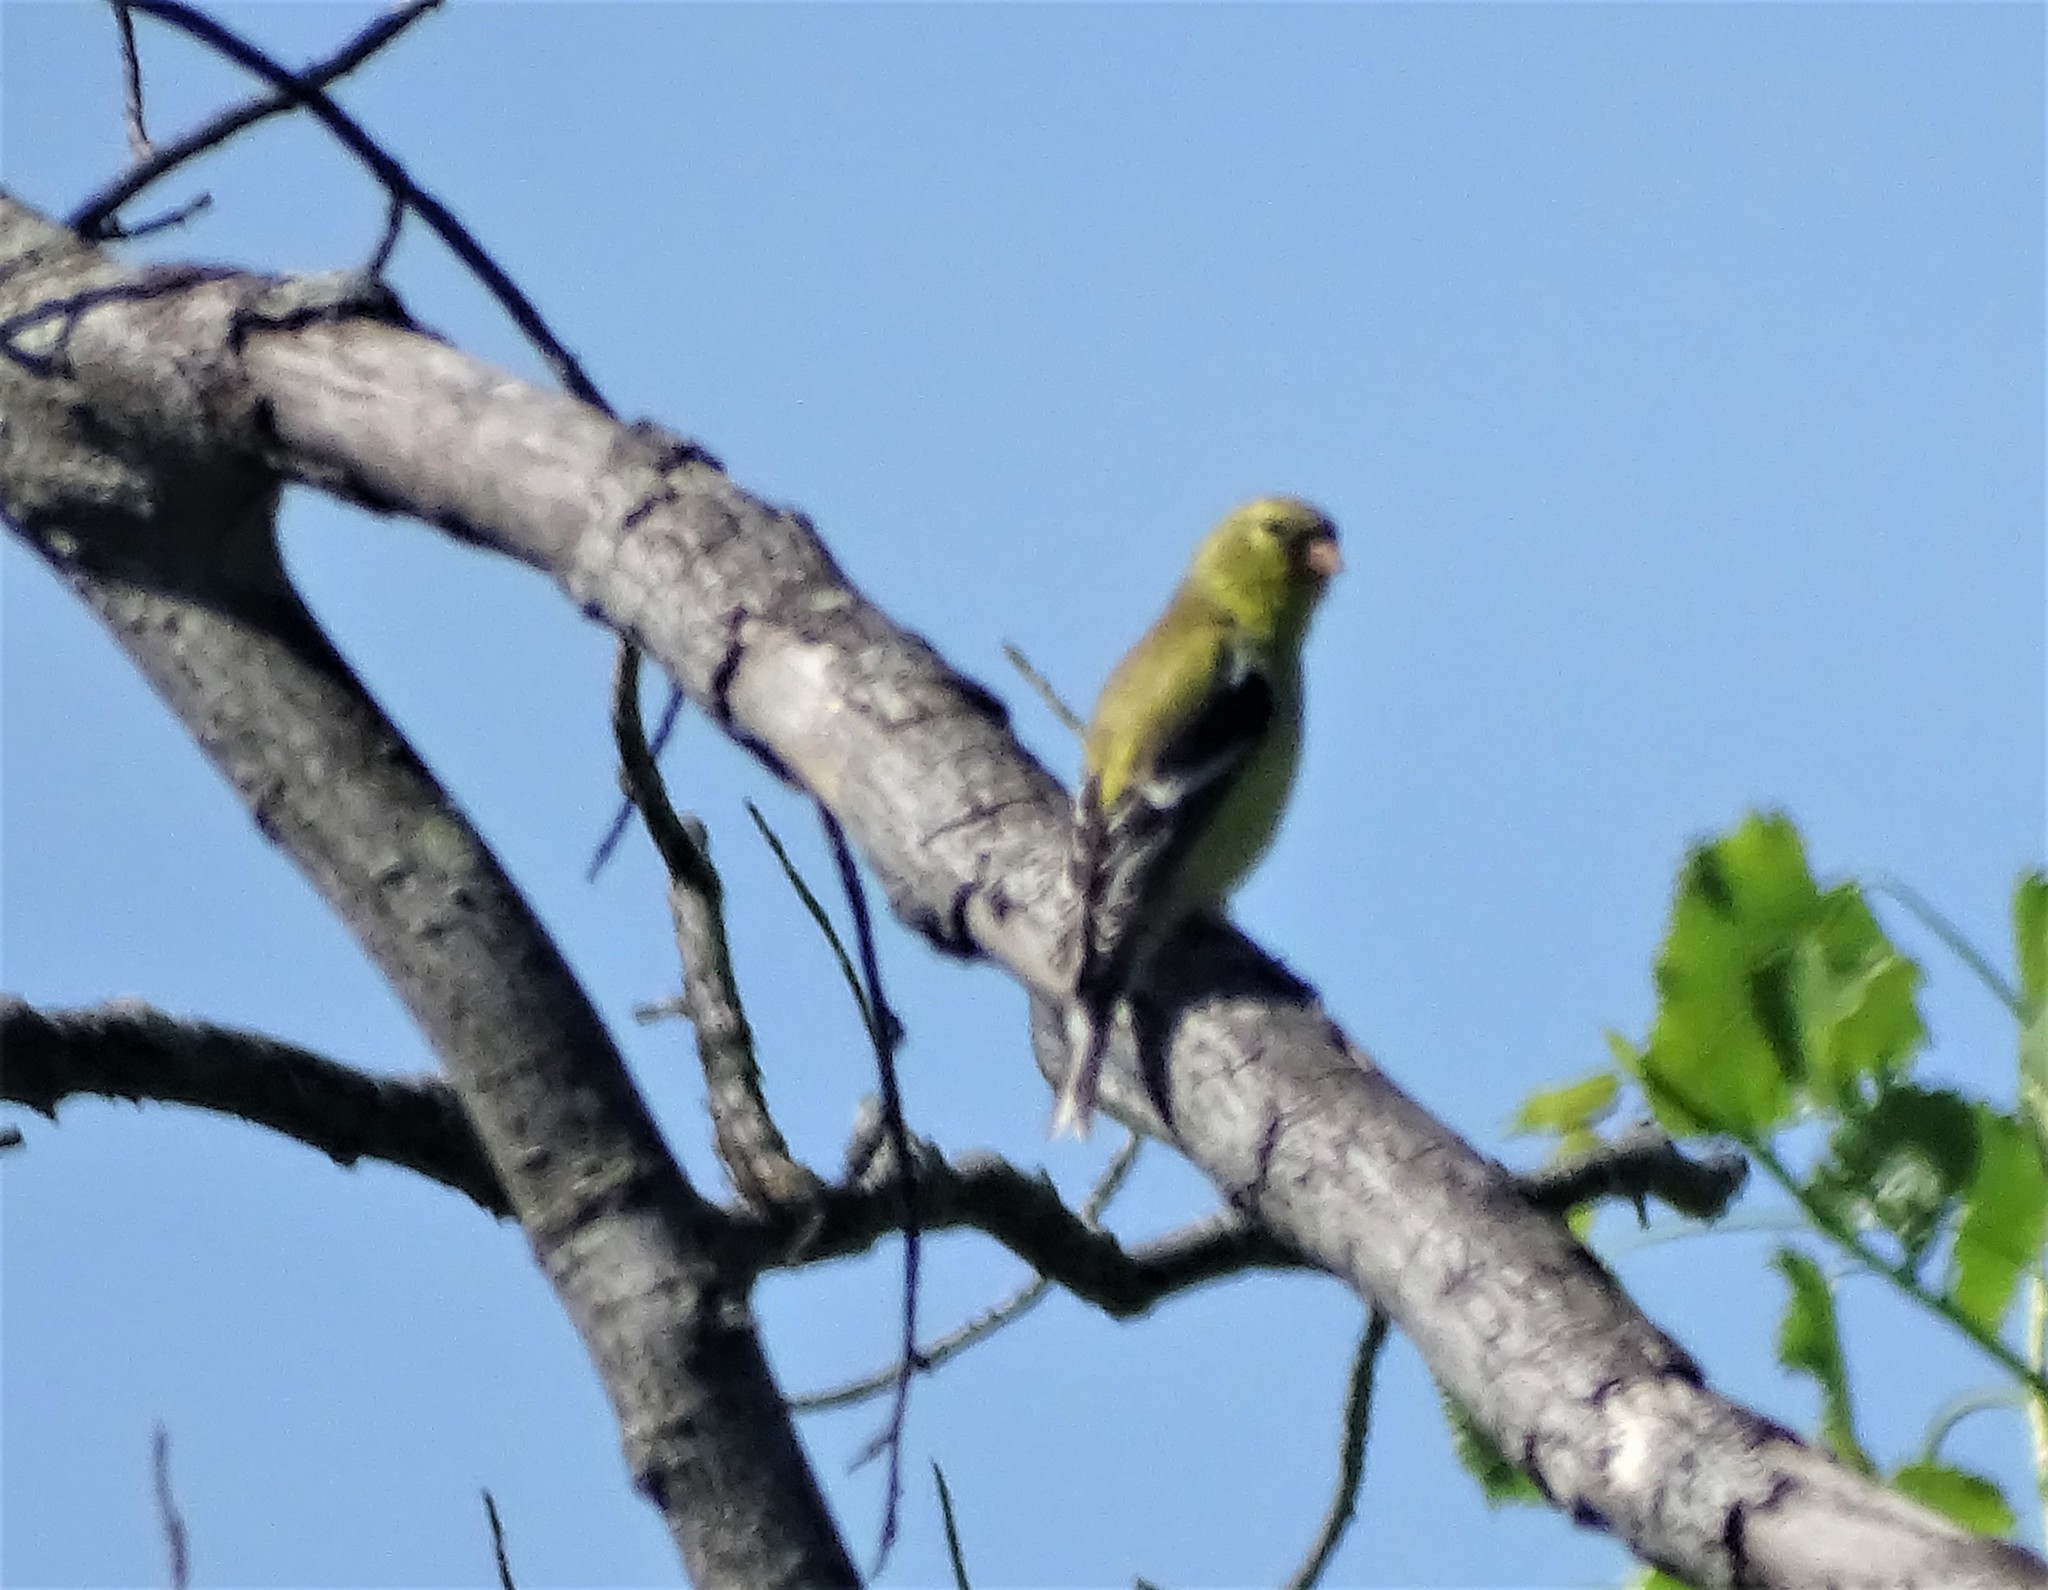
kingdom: Animalia
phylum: Chordata
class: Aves
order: Passeriformes
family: Fringillidae
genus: Spinus
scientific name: Spinus tristis
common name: American goldfinch
